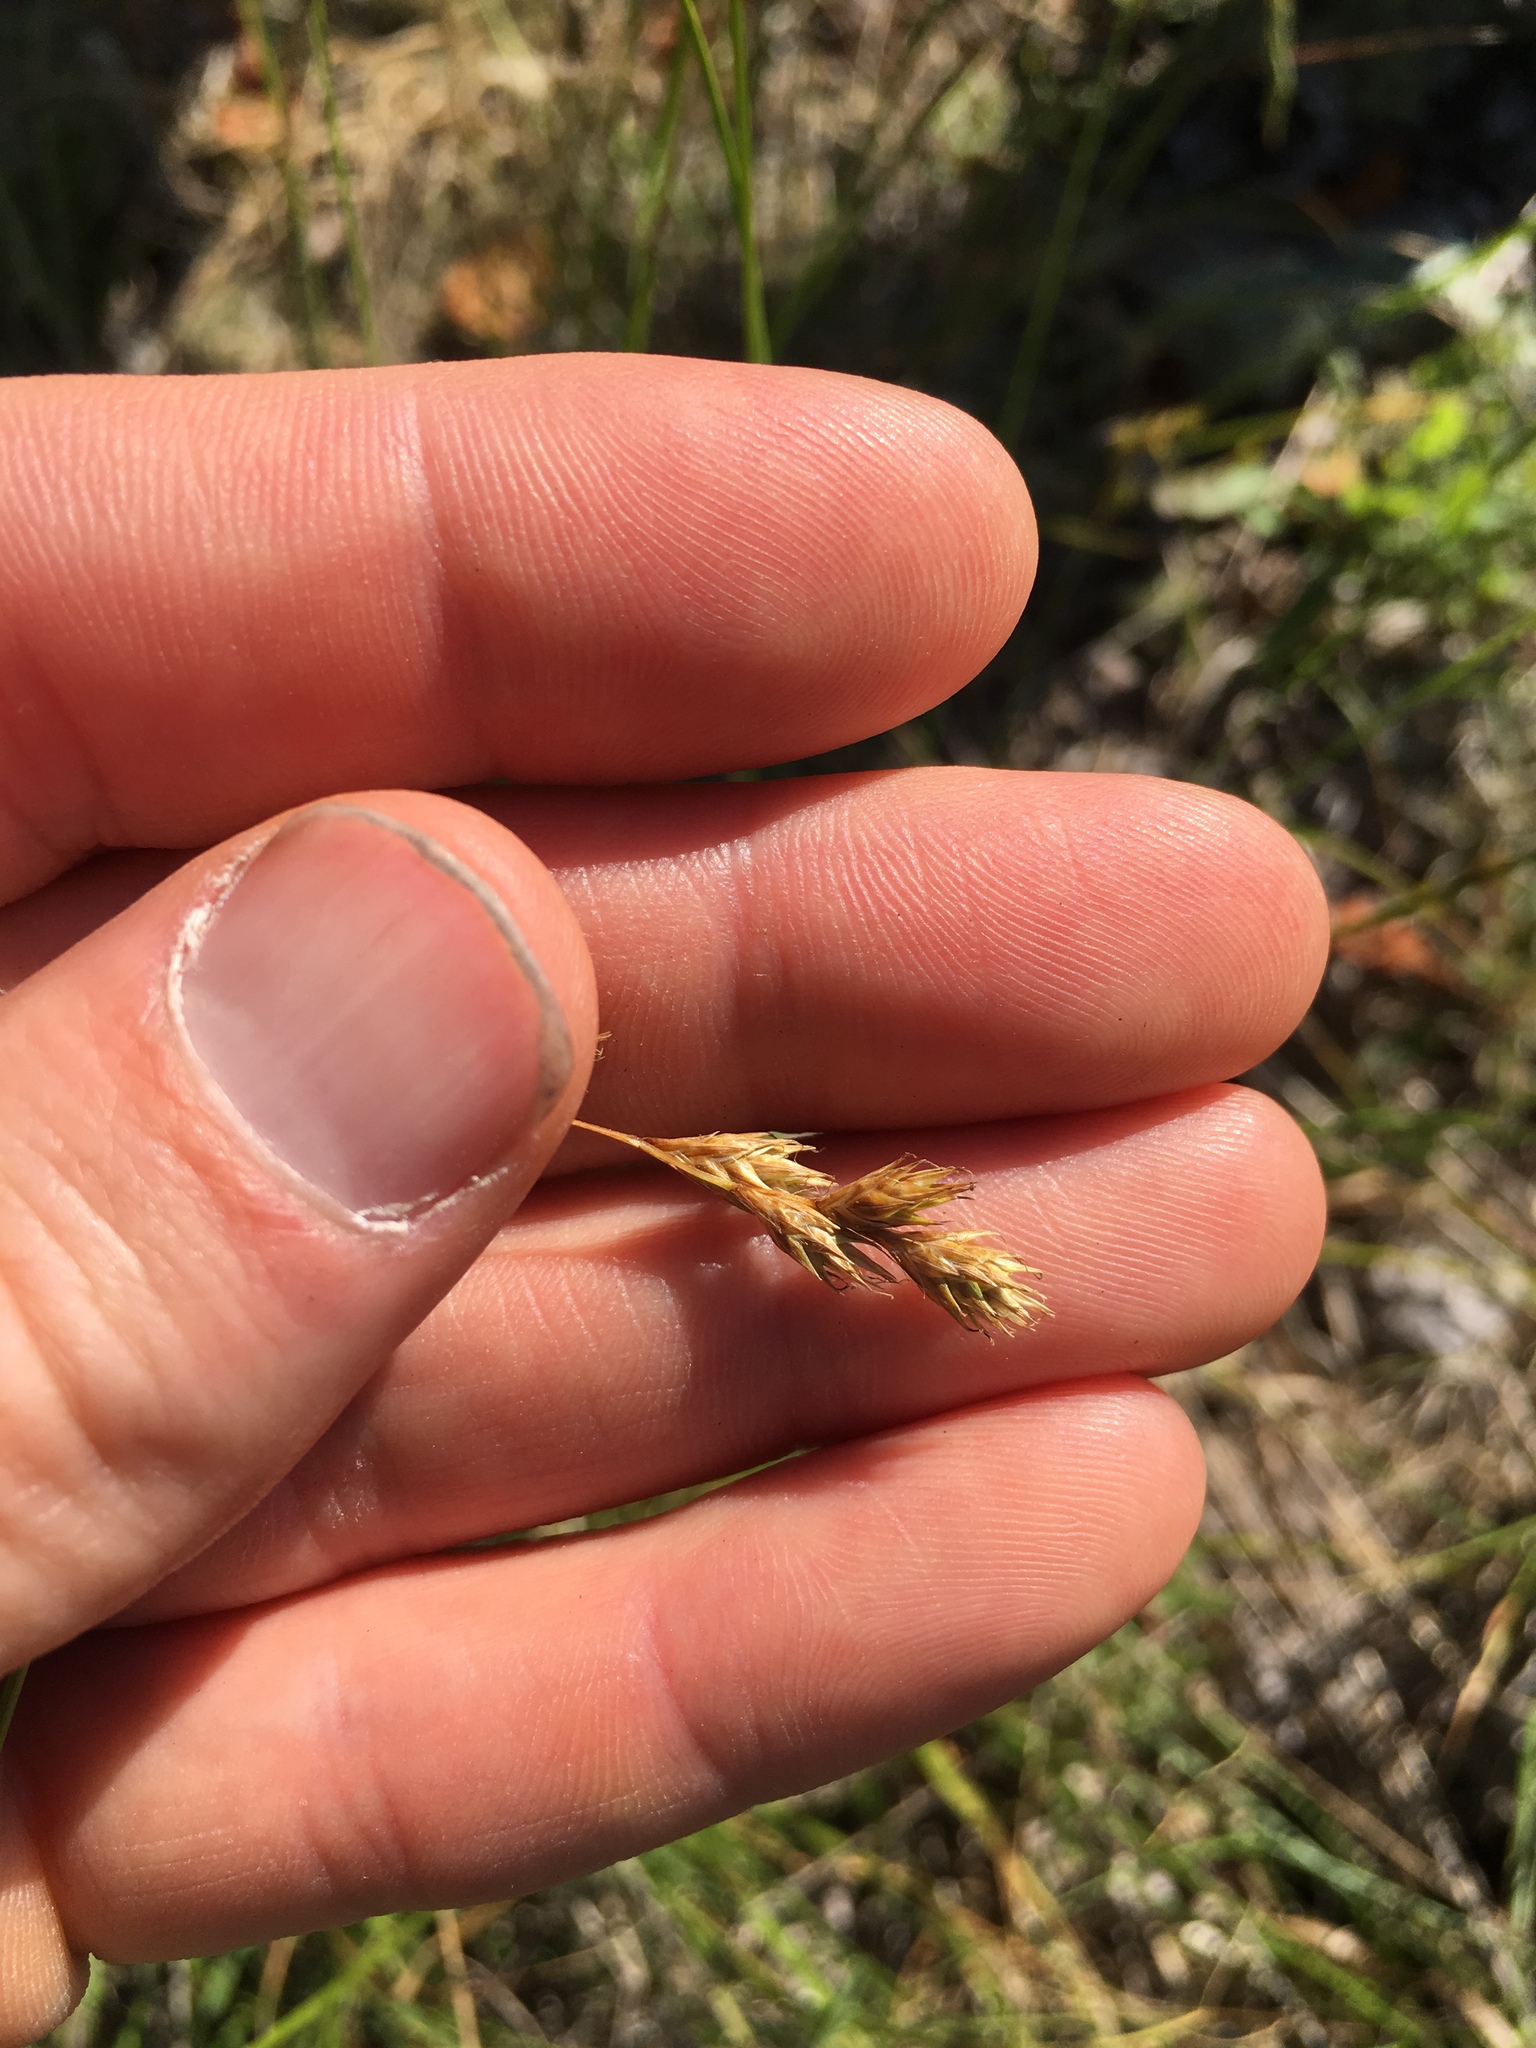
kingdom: Plantae
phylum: Tracheophyta
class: Liliopsida
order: Poales
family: Cyperaceae
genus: Carex
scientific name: Carex foenea
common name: Bronze sedge
